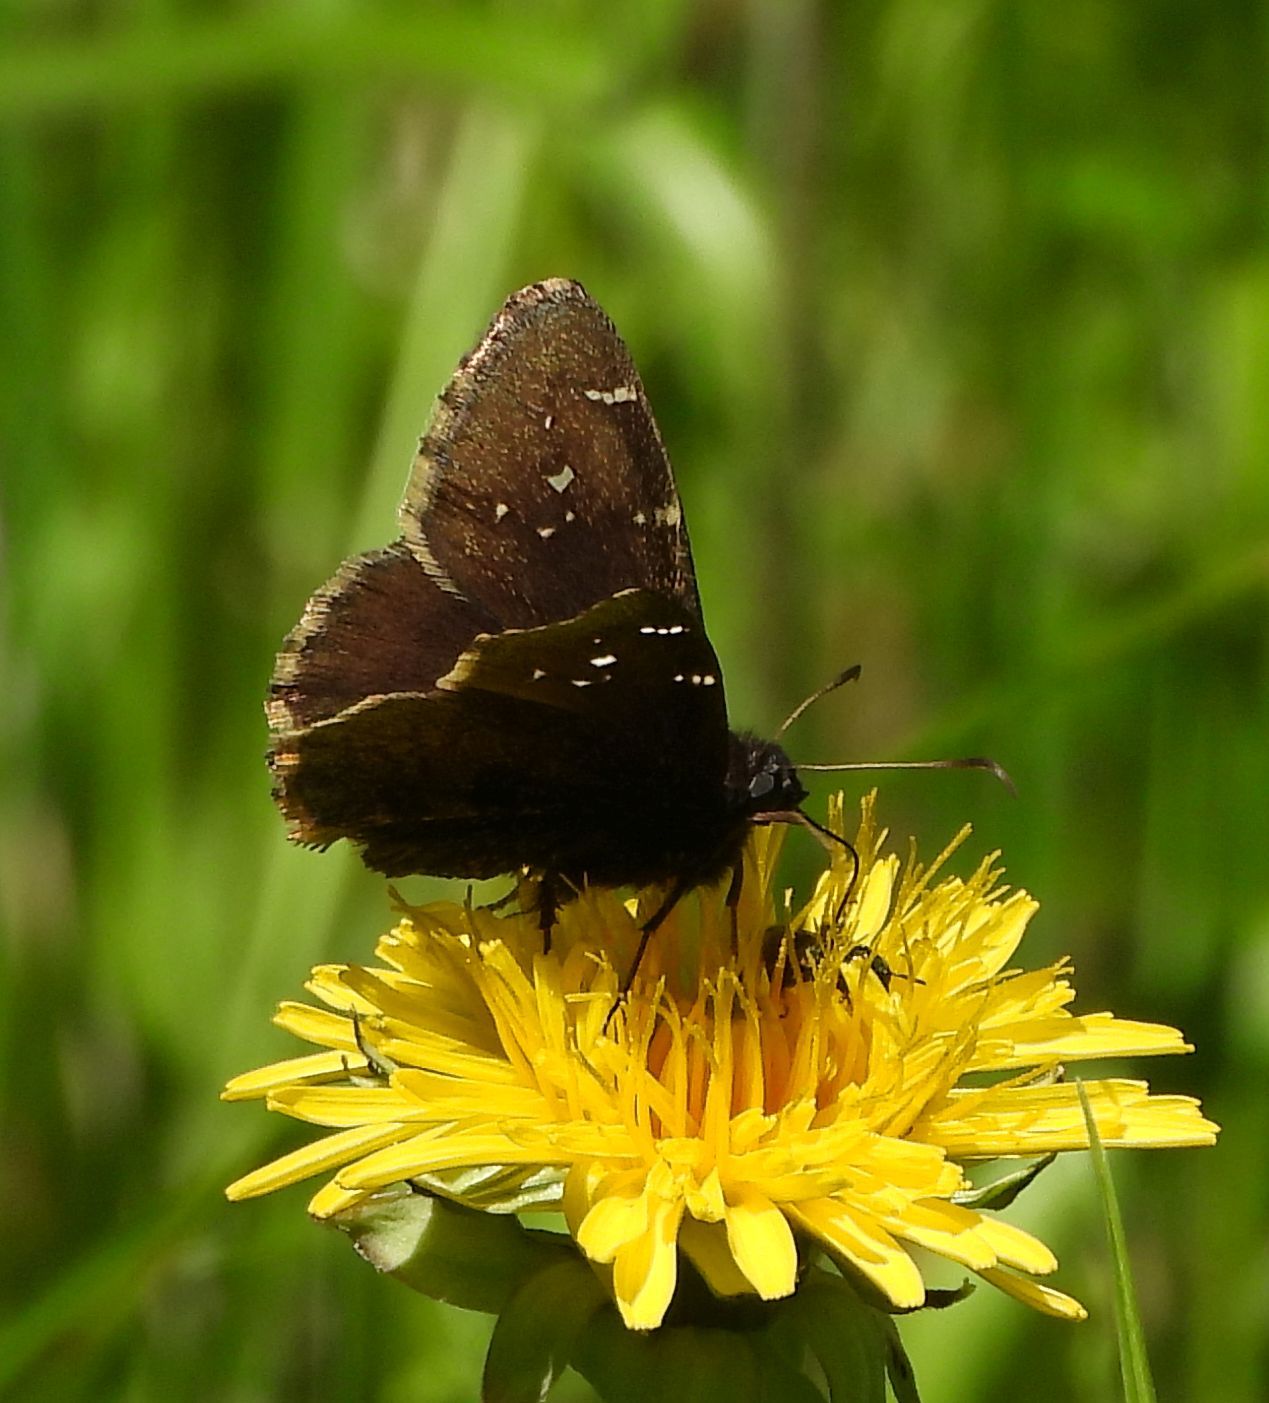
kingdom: Animalia
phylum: Arthropoda
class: Insecta
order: Lepidoptera
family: Hesperiidae
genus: Thorybes
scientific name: Thorybes pylades
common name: Northern cloudywing
